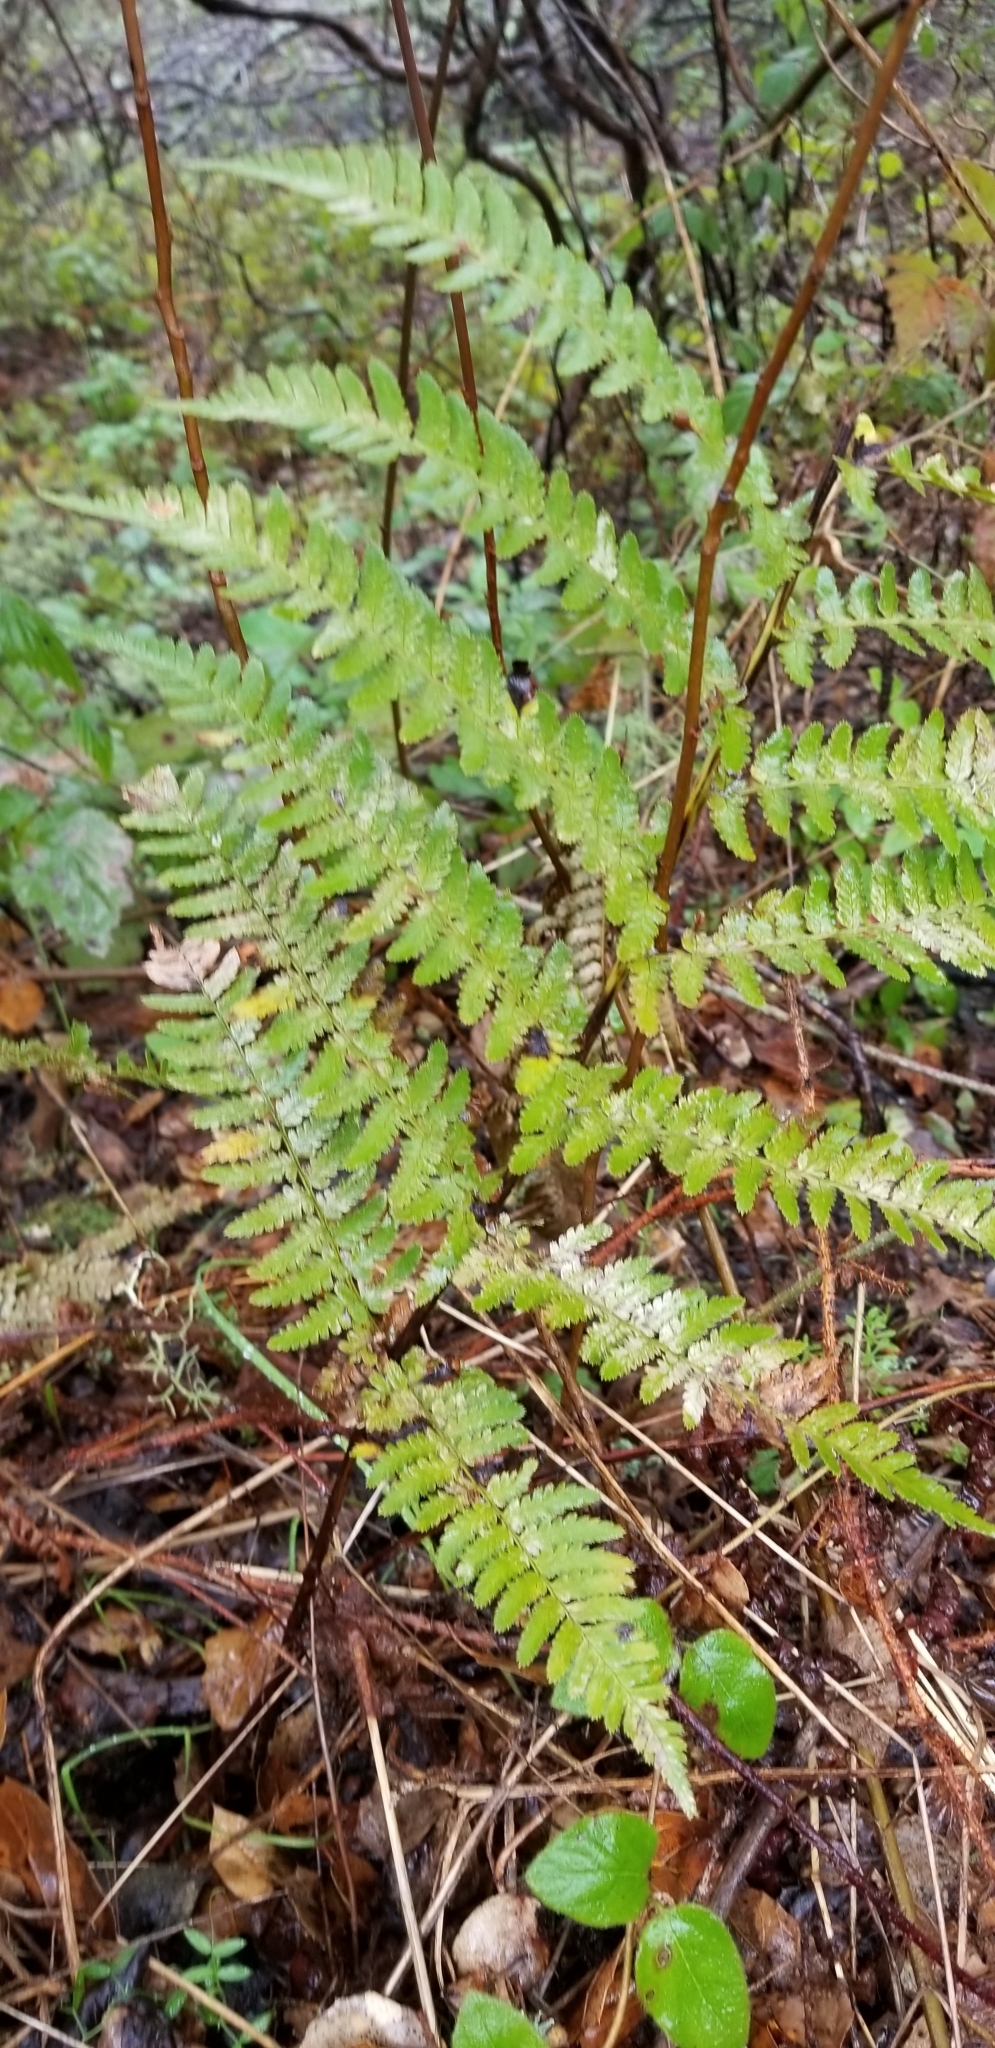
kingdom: Plantae
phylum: Tracheophyta
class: Polypodiopsida
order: Polypodiales
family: Dryopteridaceae
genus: Dryopteris
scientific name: Dryopteris arguta
